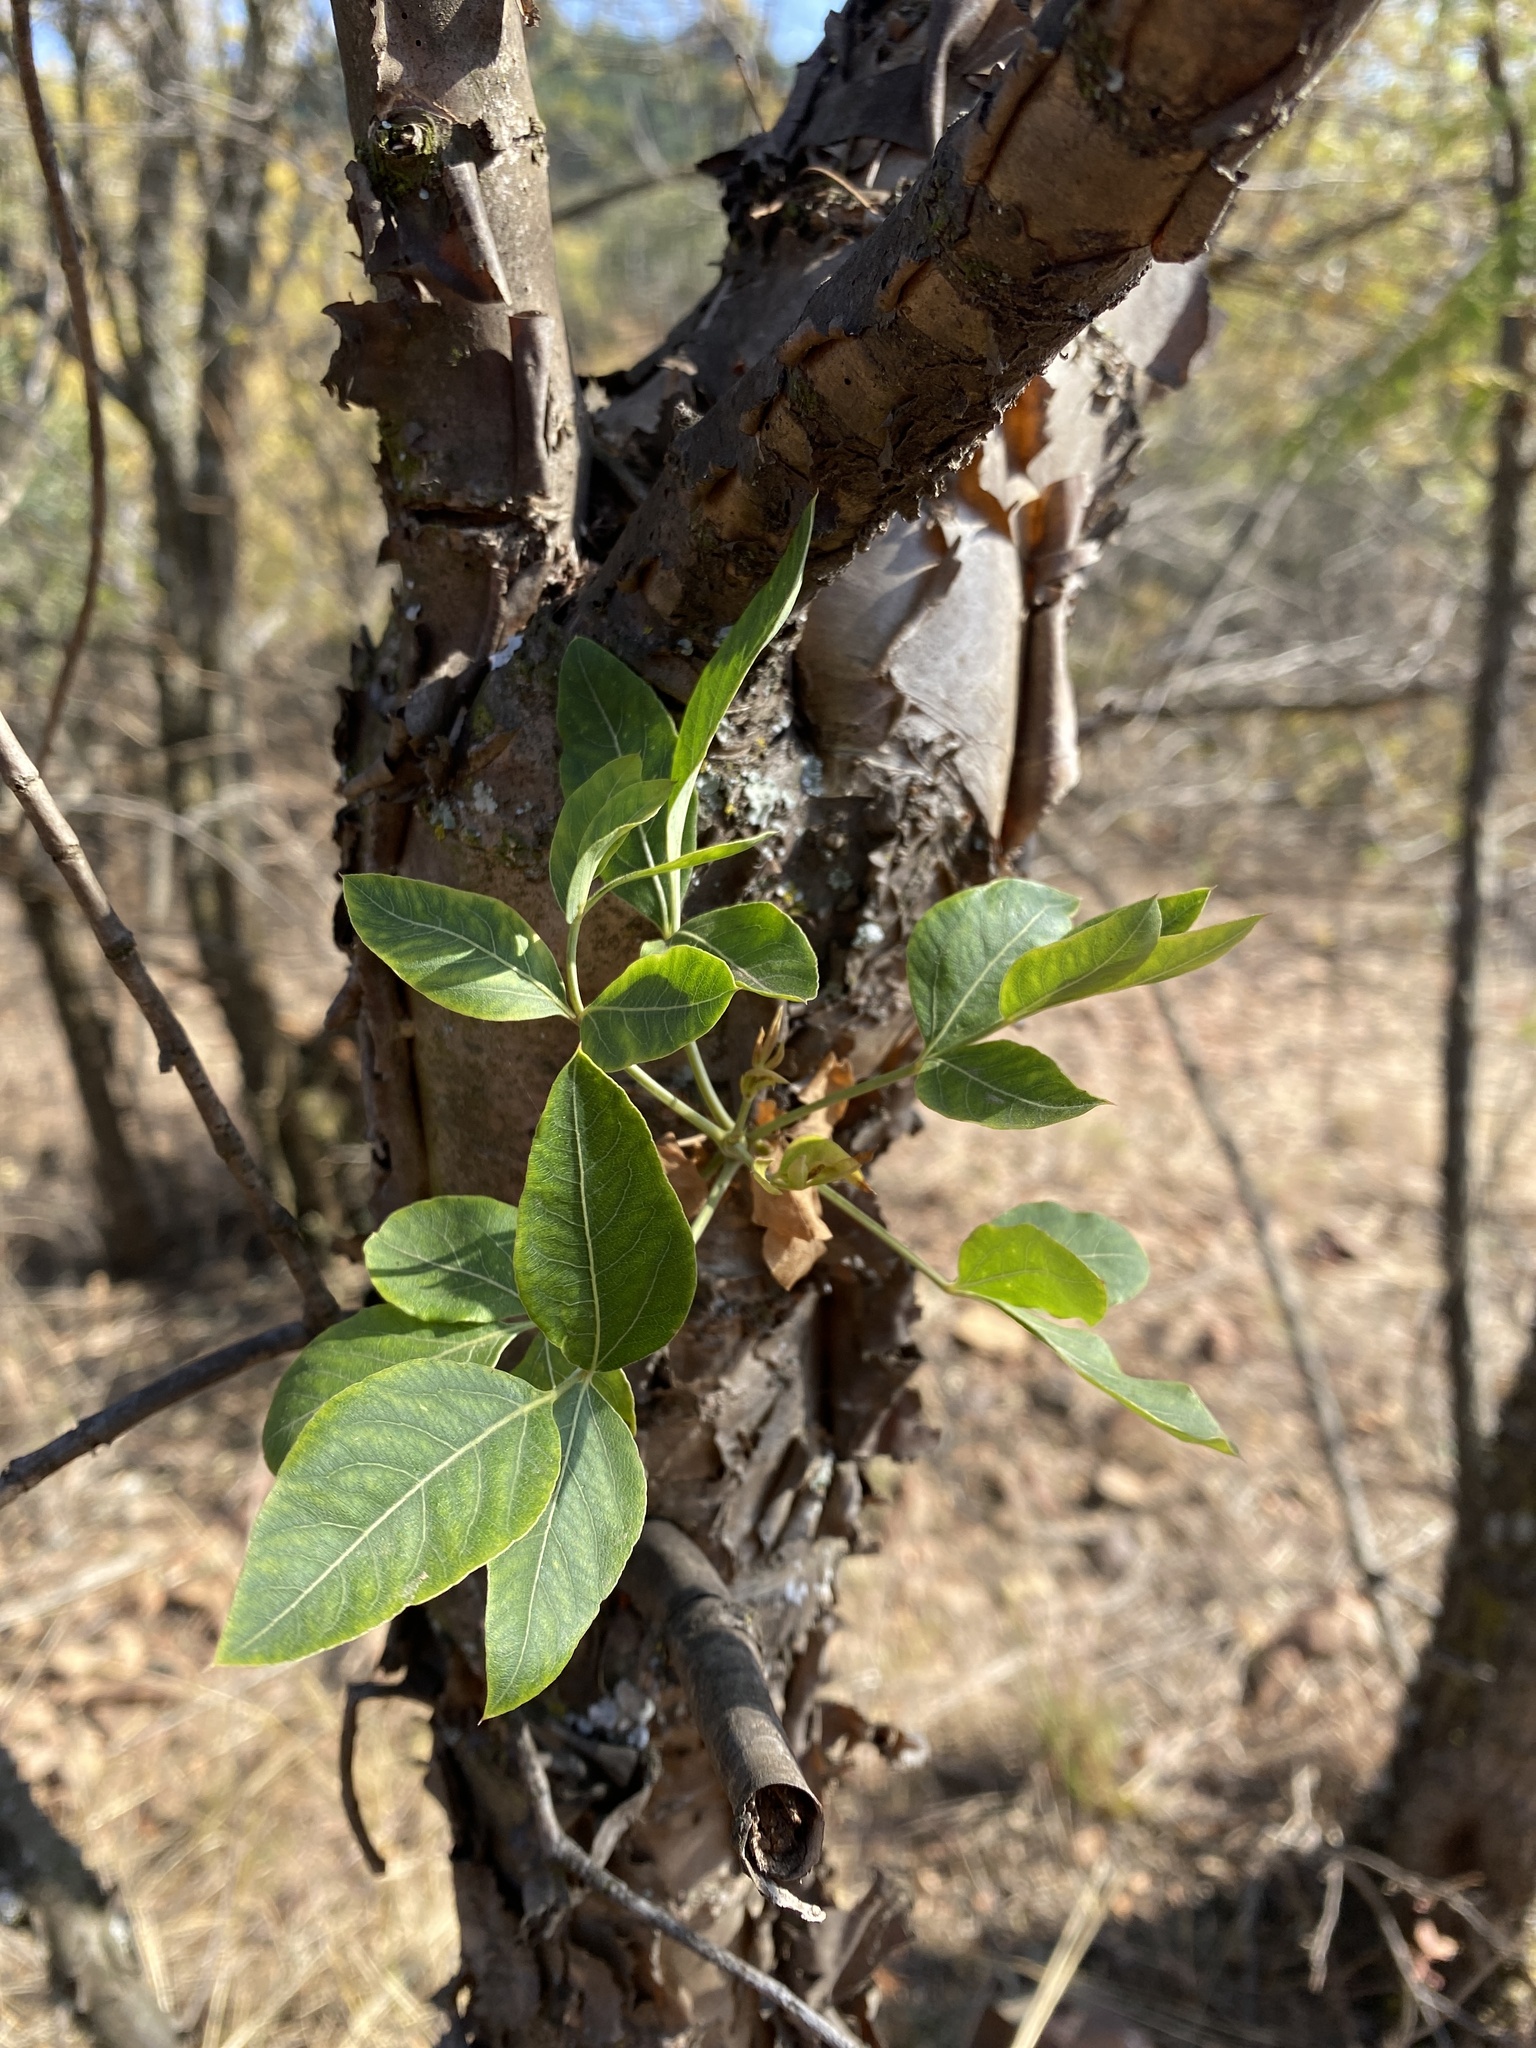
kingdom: Plantae
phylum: Tracheophyta
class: Magnoliopsida
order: Apiales
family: Apiaceae
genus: Heteromorpha
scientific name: Heteromorpha arborescens
